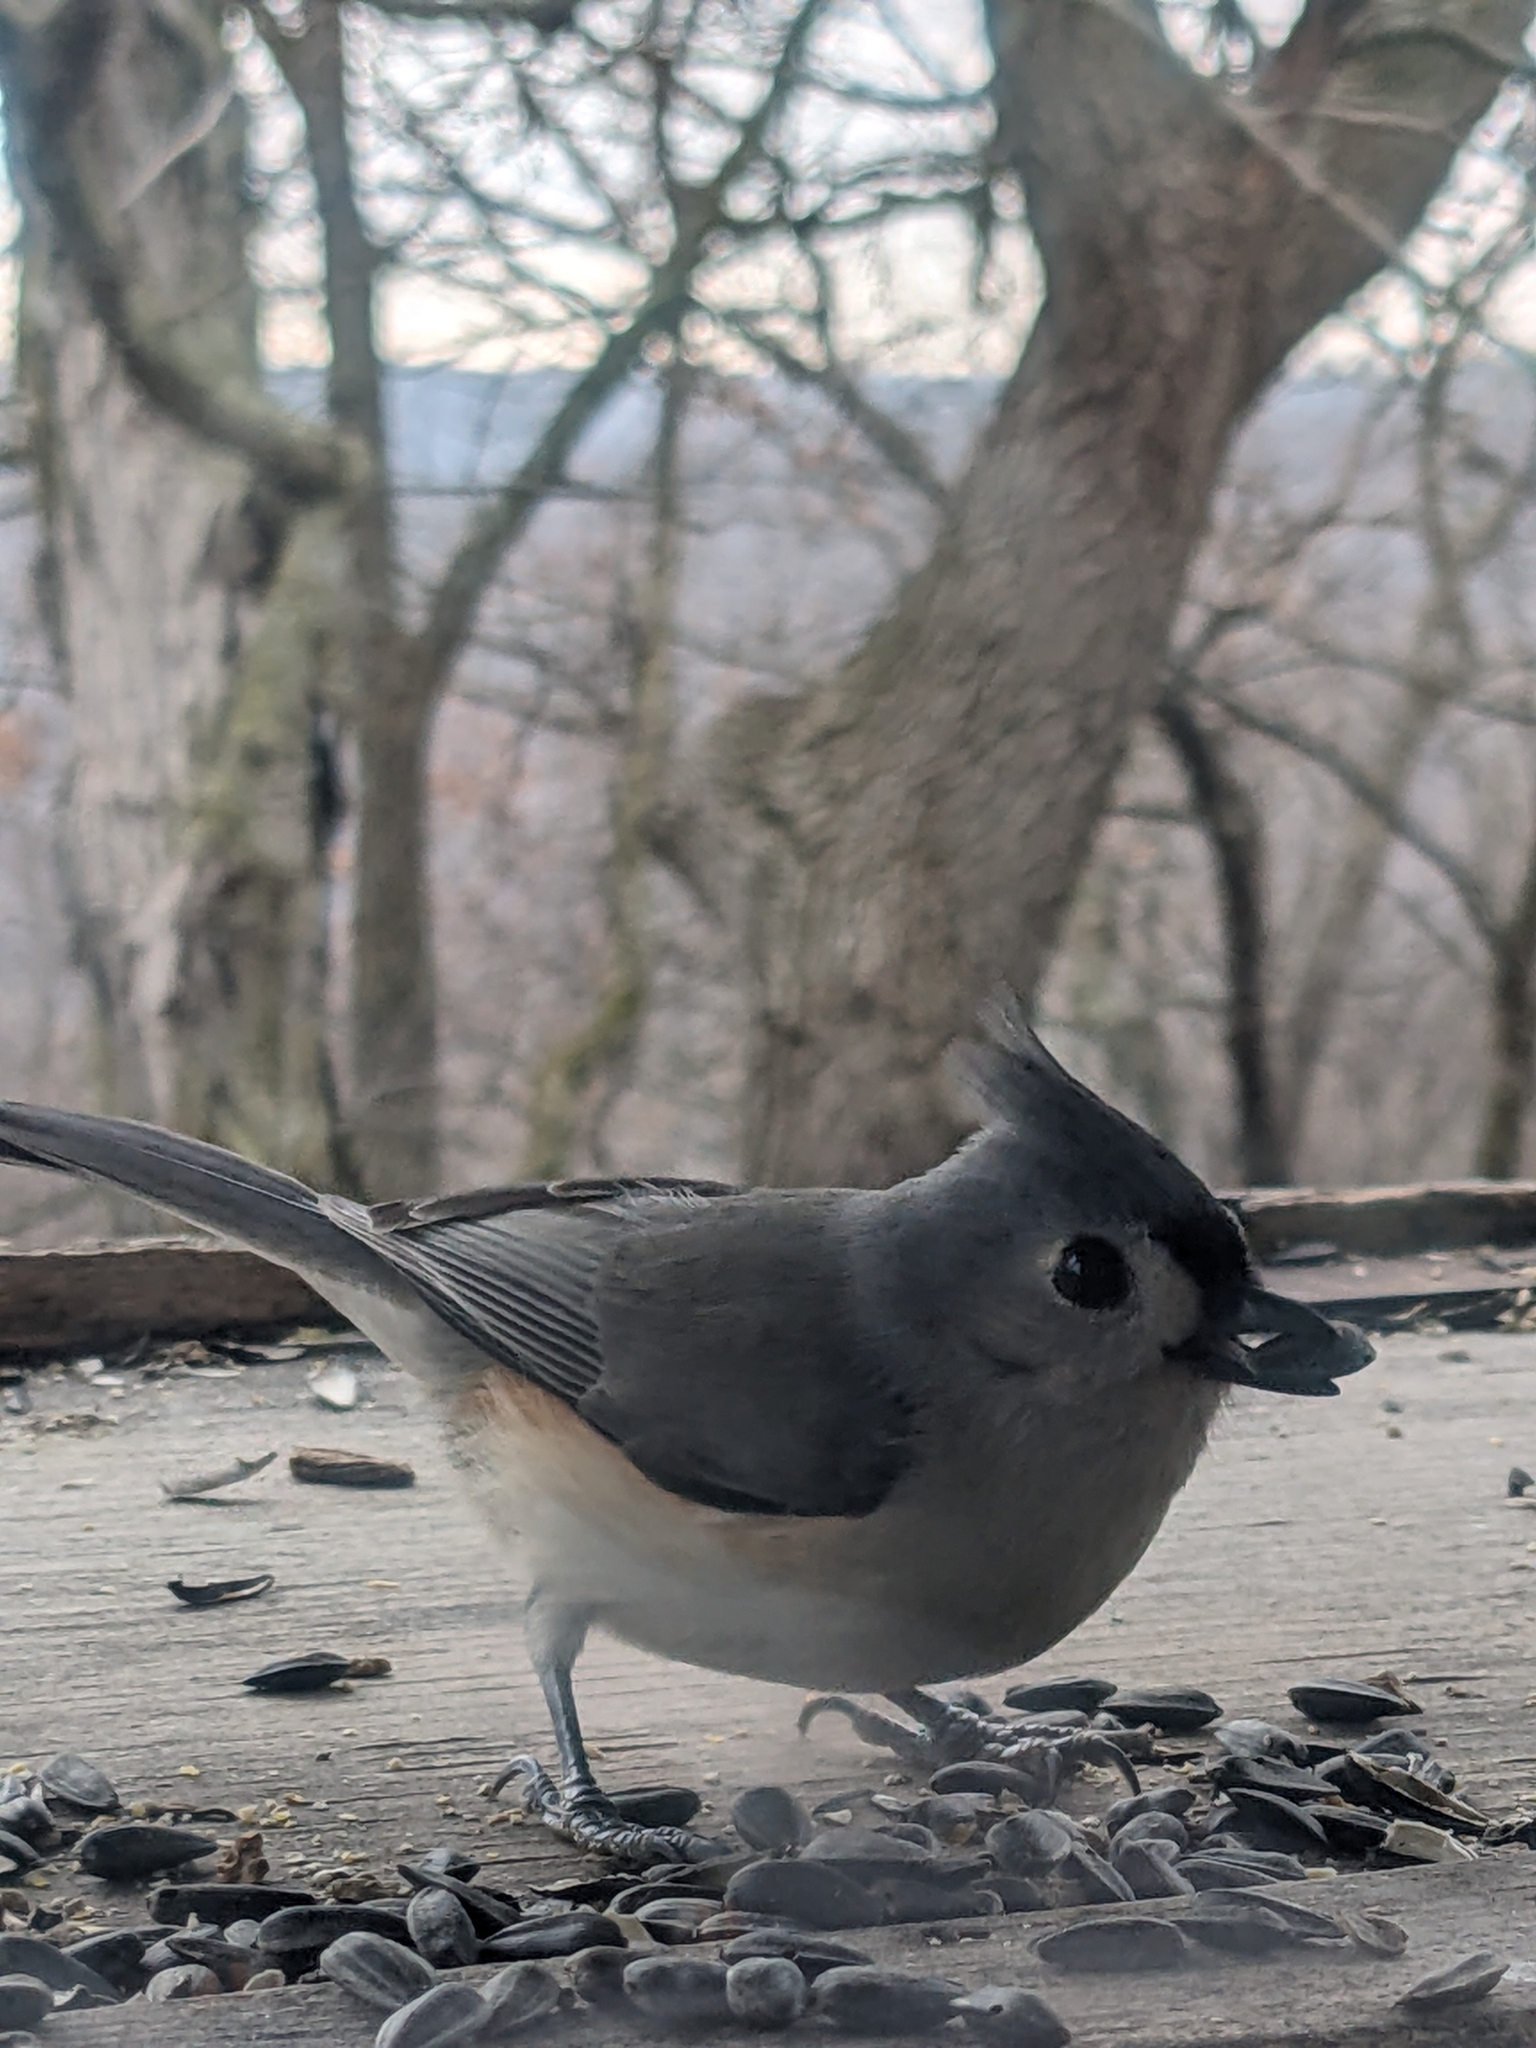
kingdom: Animalia
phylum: Chordata
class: Aves
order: Passeriformes
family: Paridae
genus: Baeolophus
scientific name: Baeolophus bicolor
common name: Tufted titmouse
